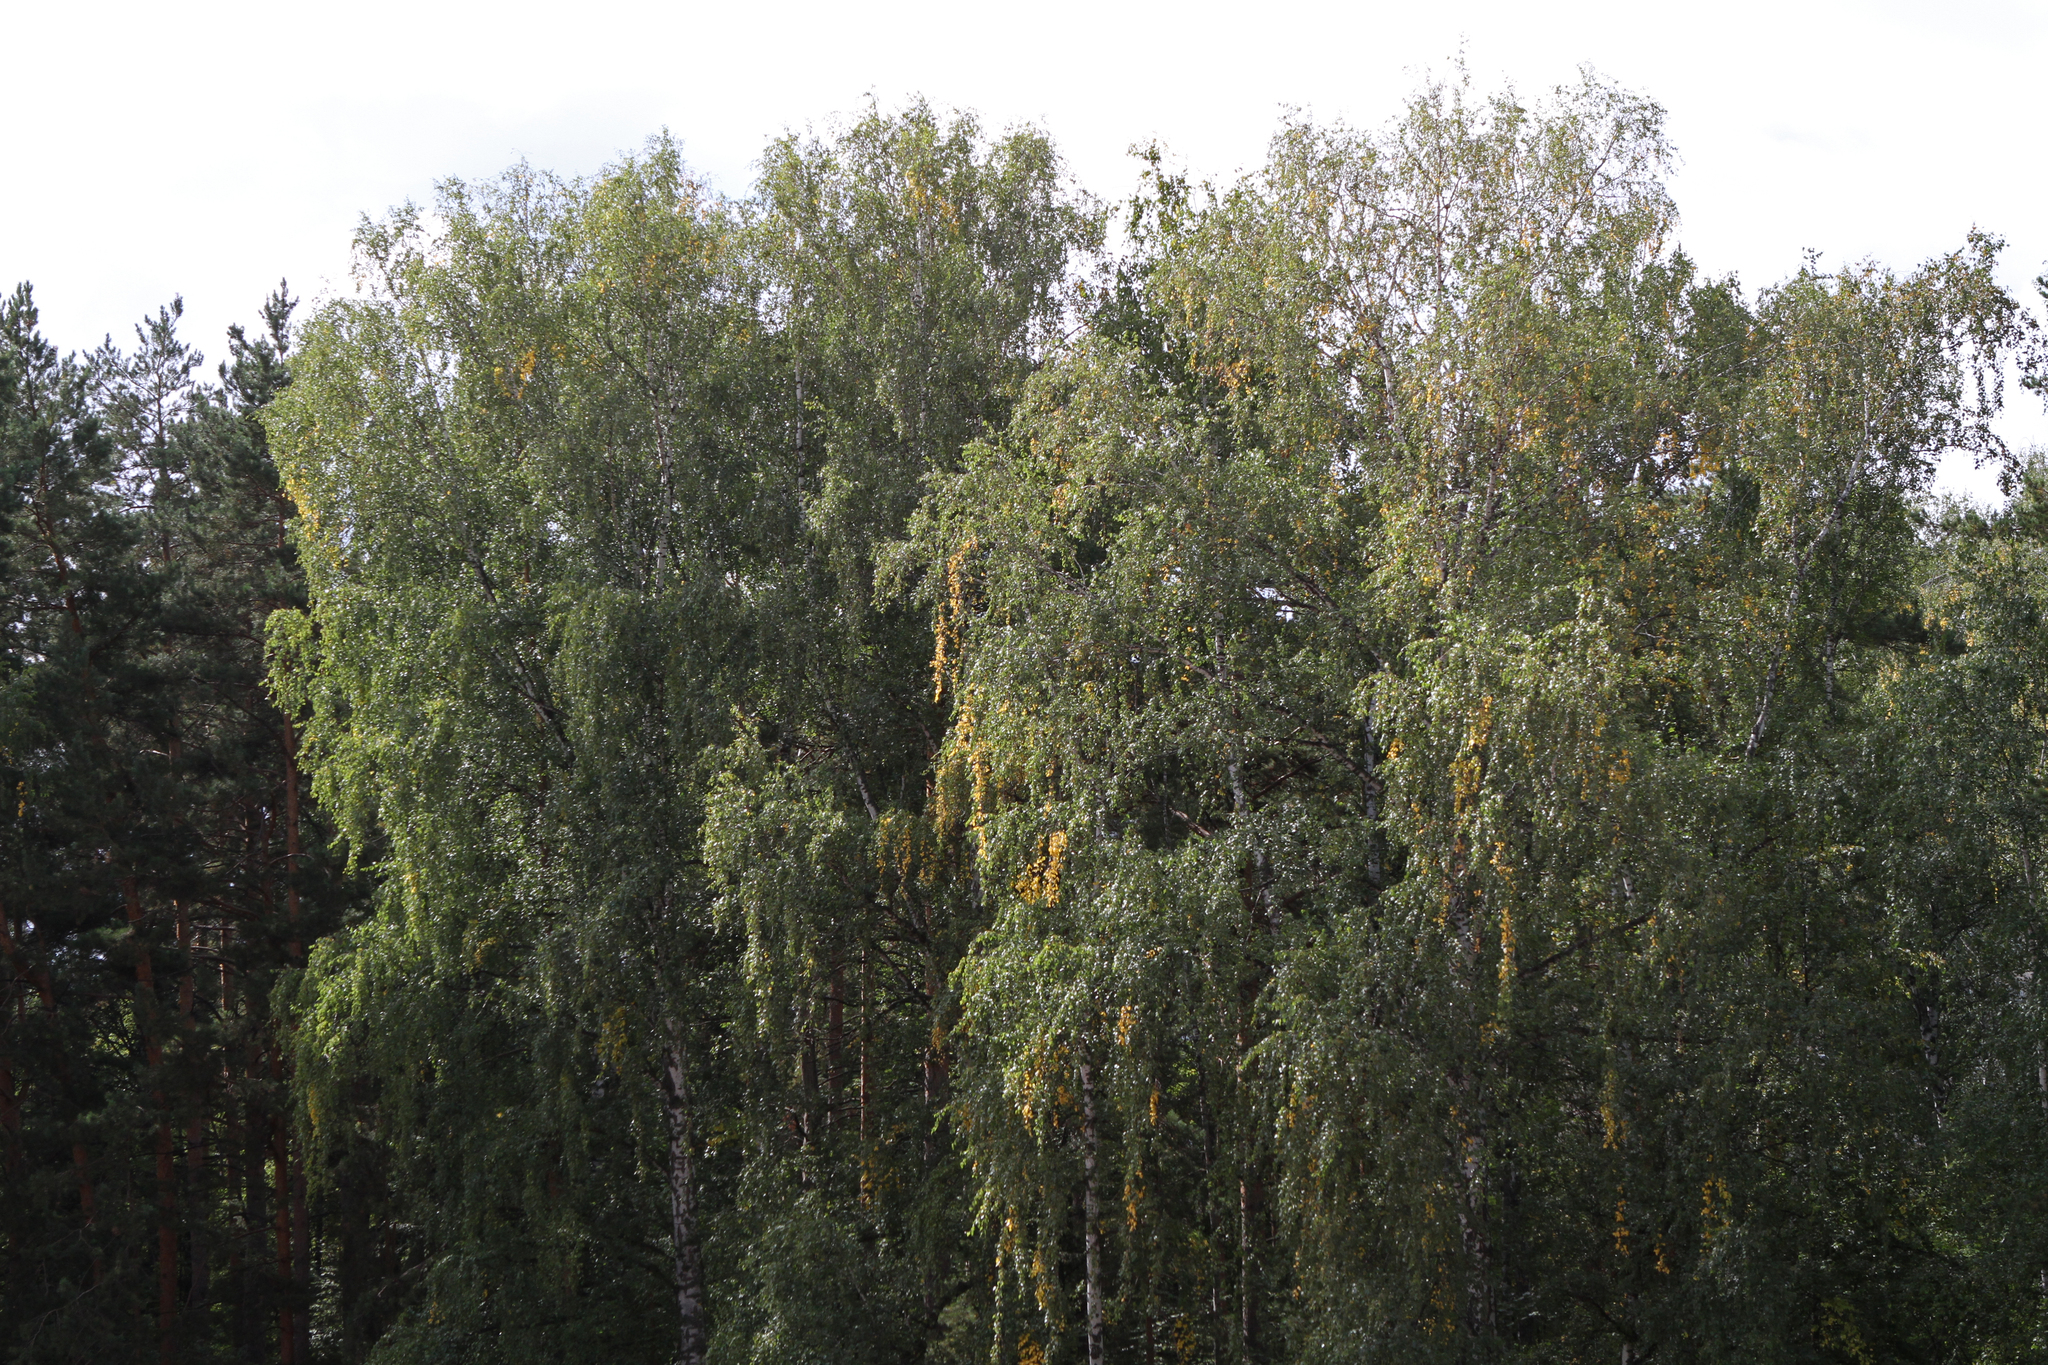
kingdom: Plantae
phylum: Tracheophyta
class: Magnoliopsida
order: Fagales
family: Betulaceae
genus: Betula
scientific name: Betula pendula
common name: Silver birch
